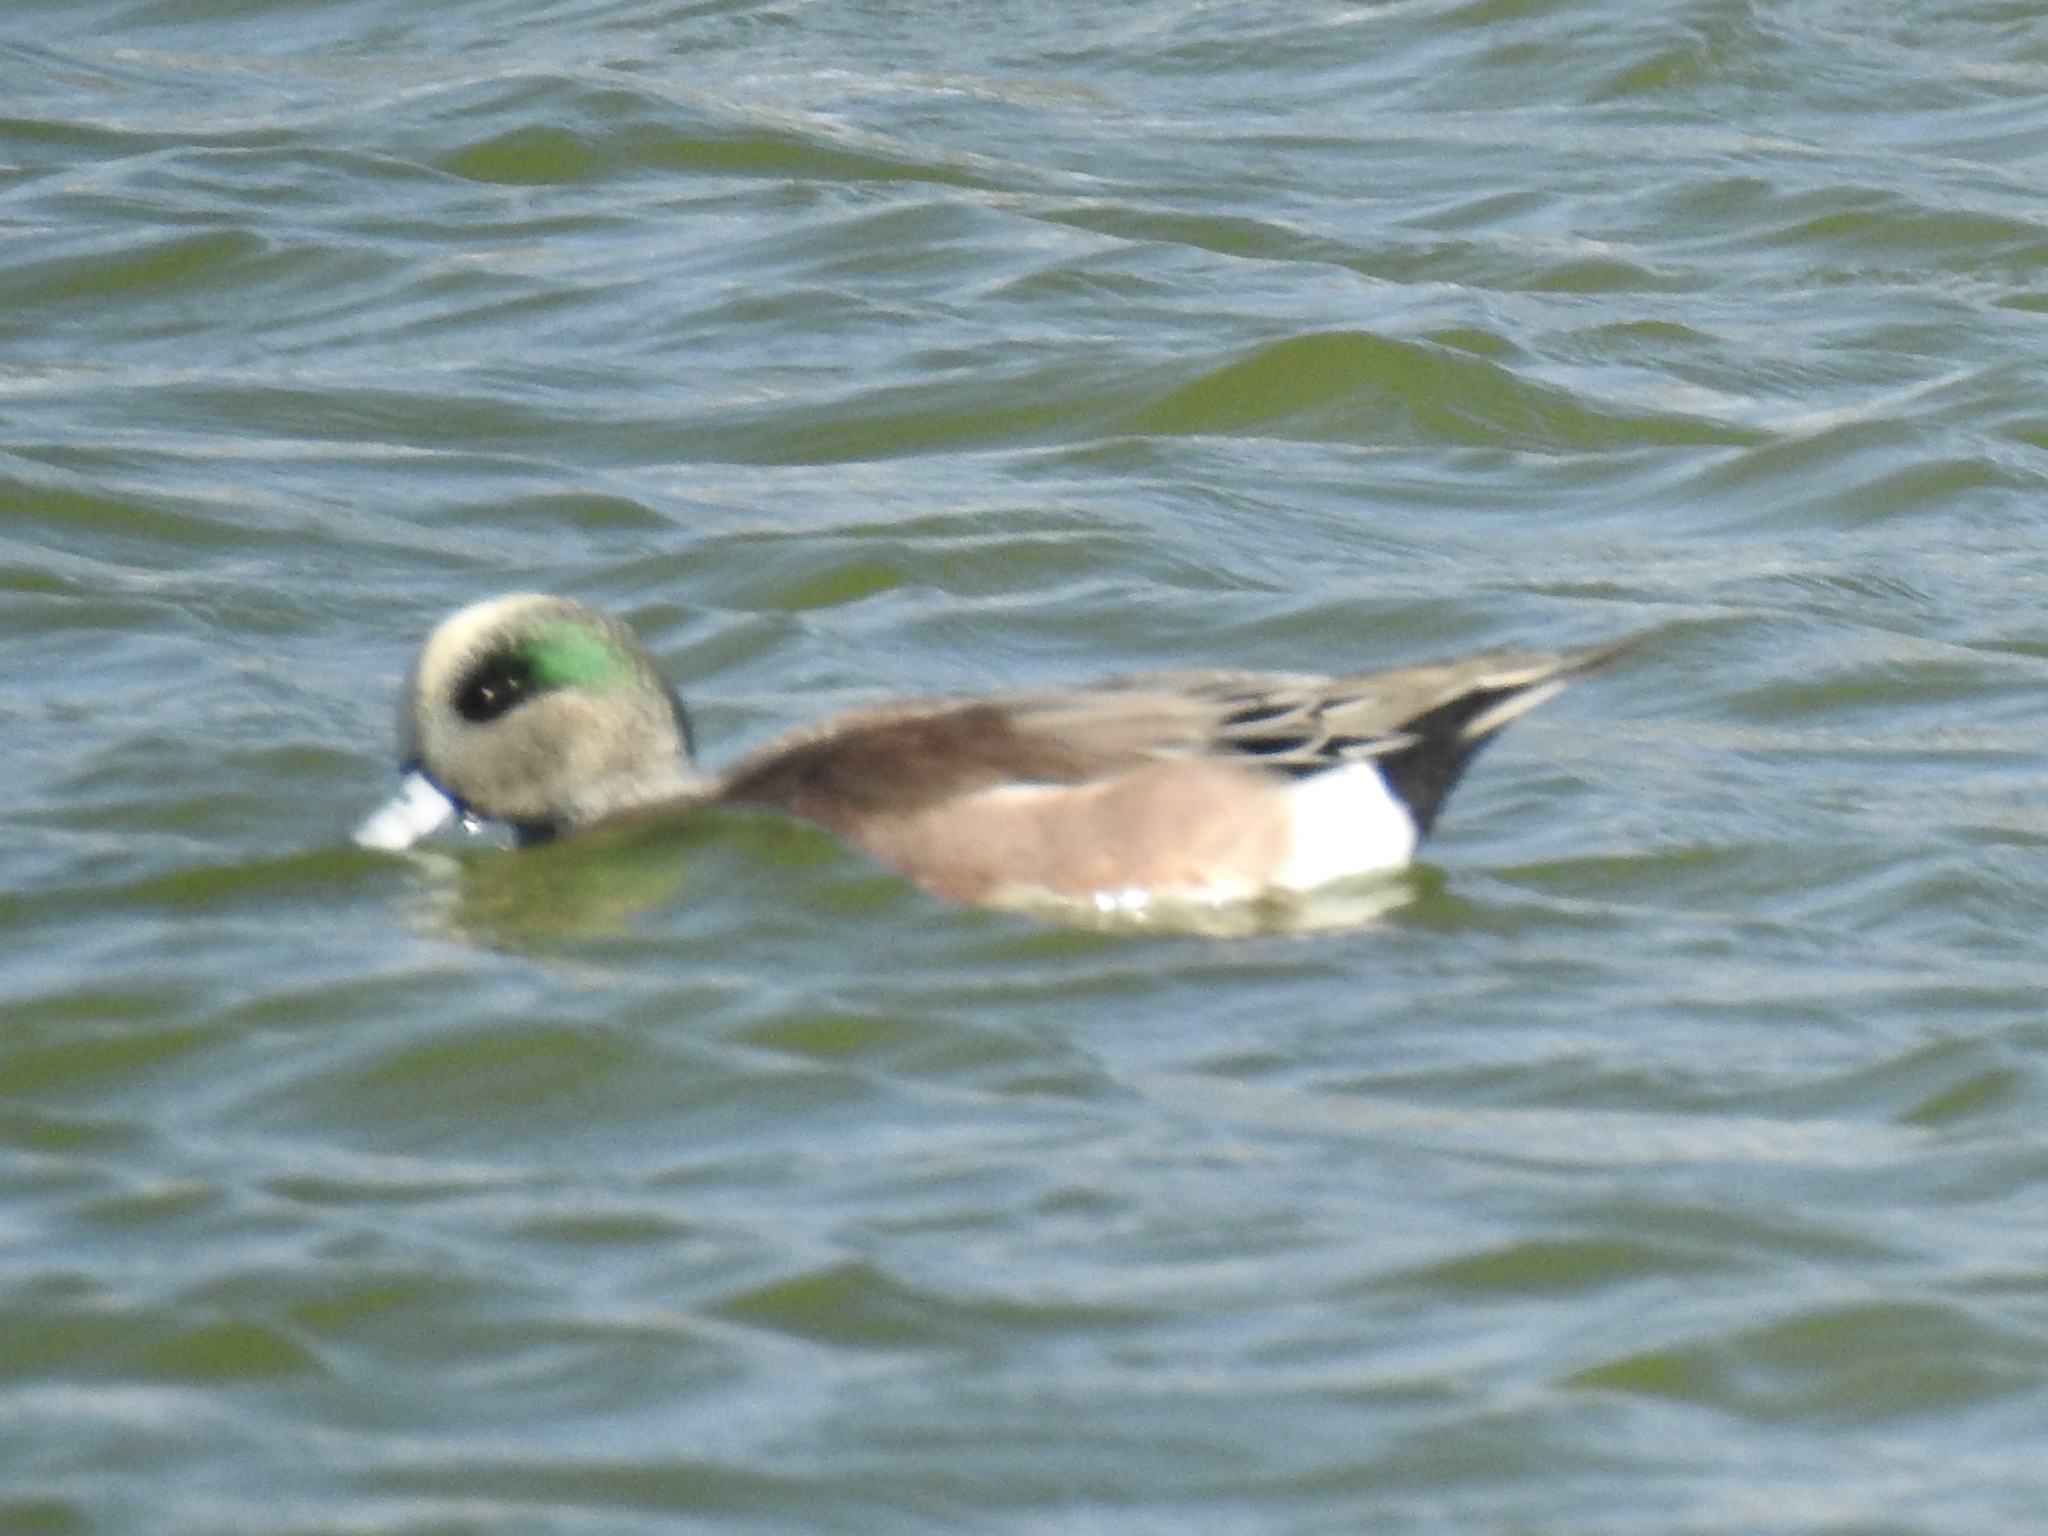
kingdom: Animalia
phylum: Chordata
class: Aves
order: Anseriformes
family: Anatidae
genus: Mareca
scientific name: Mareca americana
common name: American wigeon
